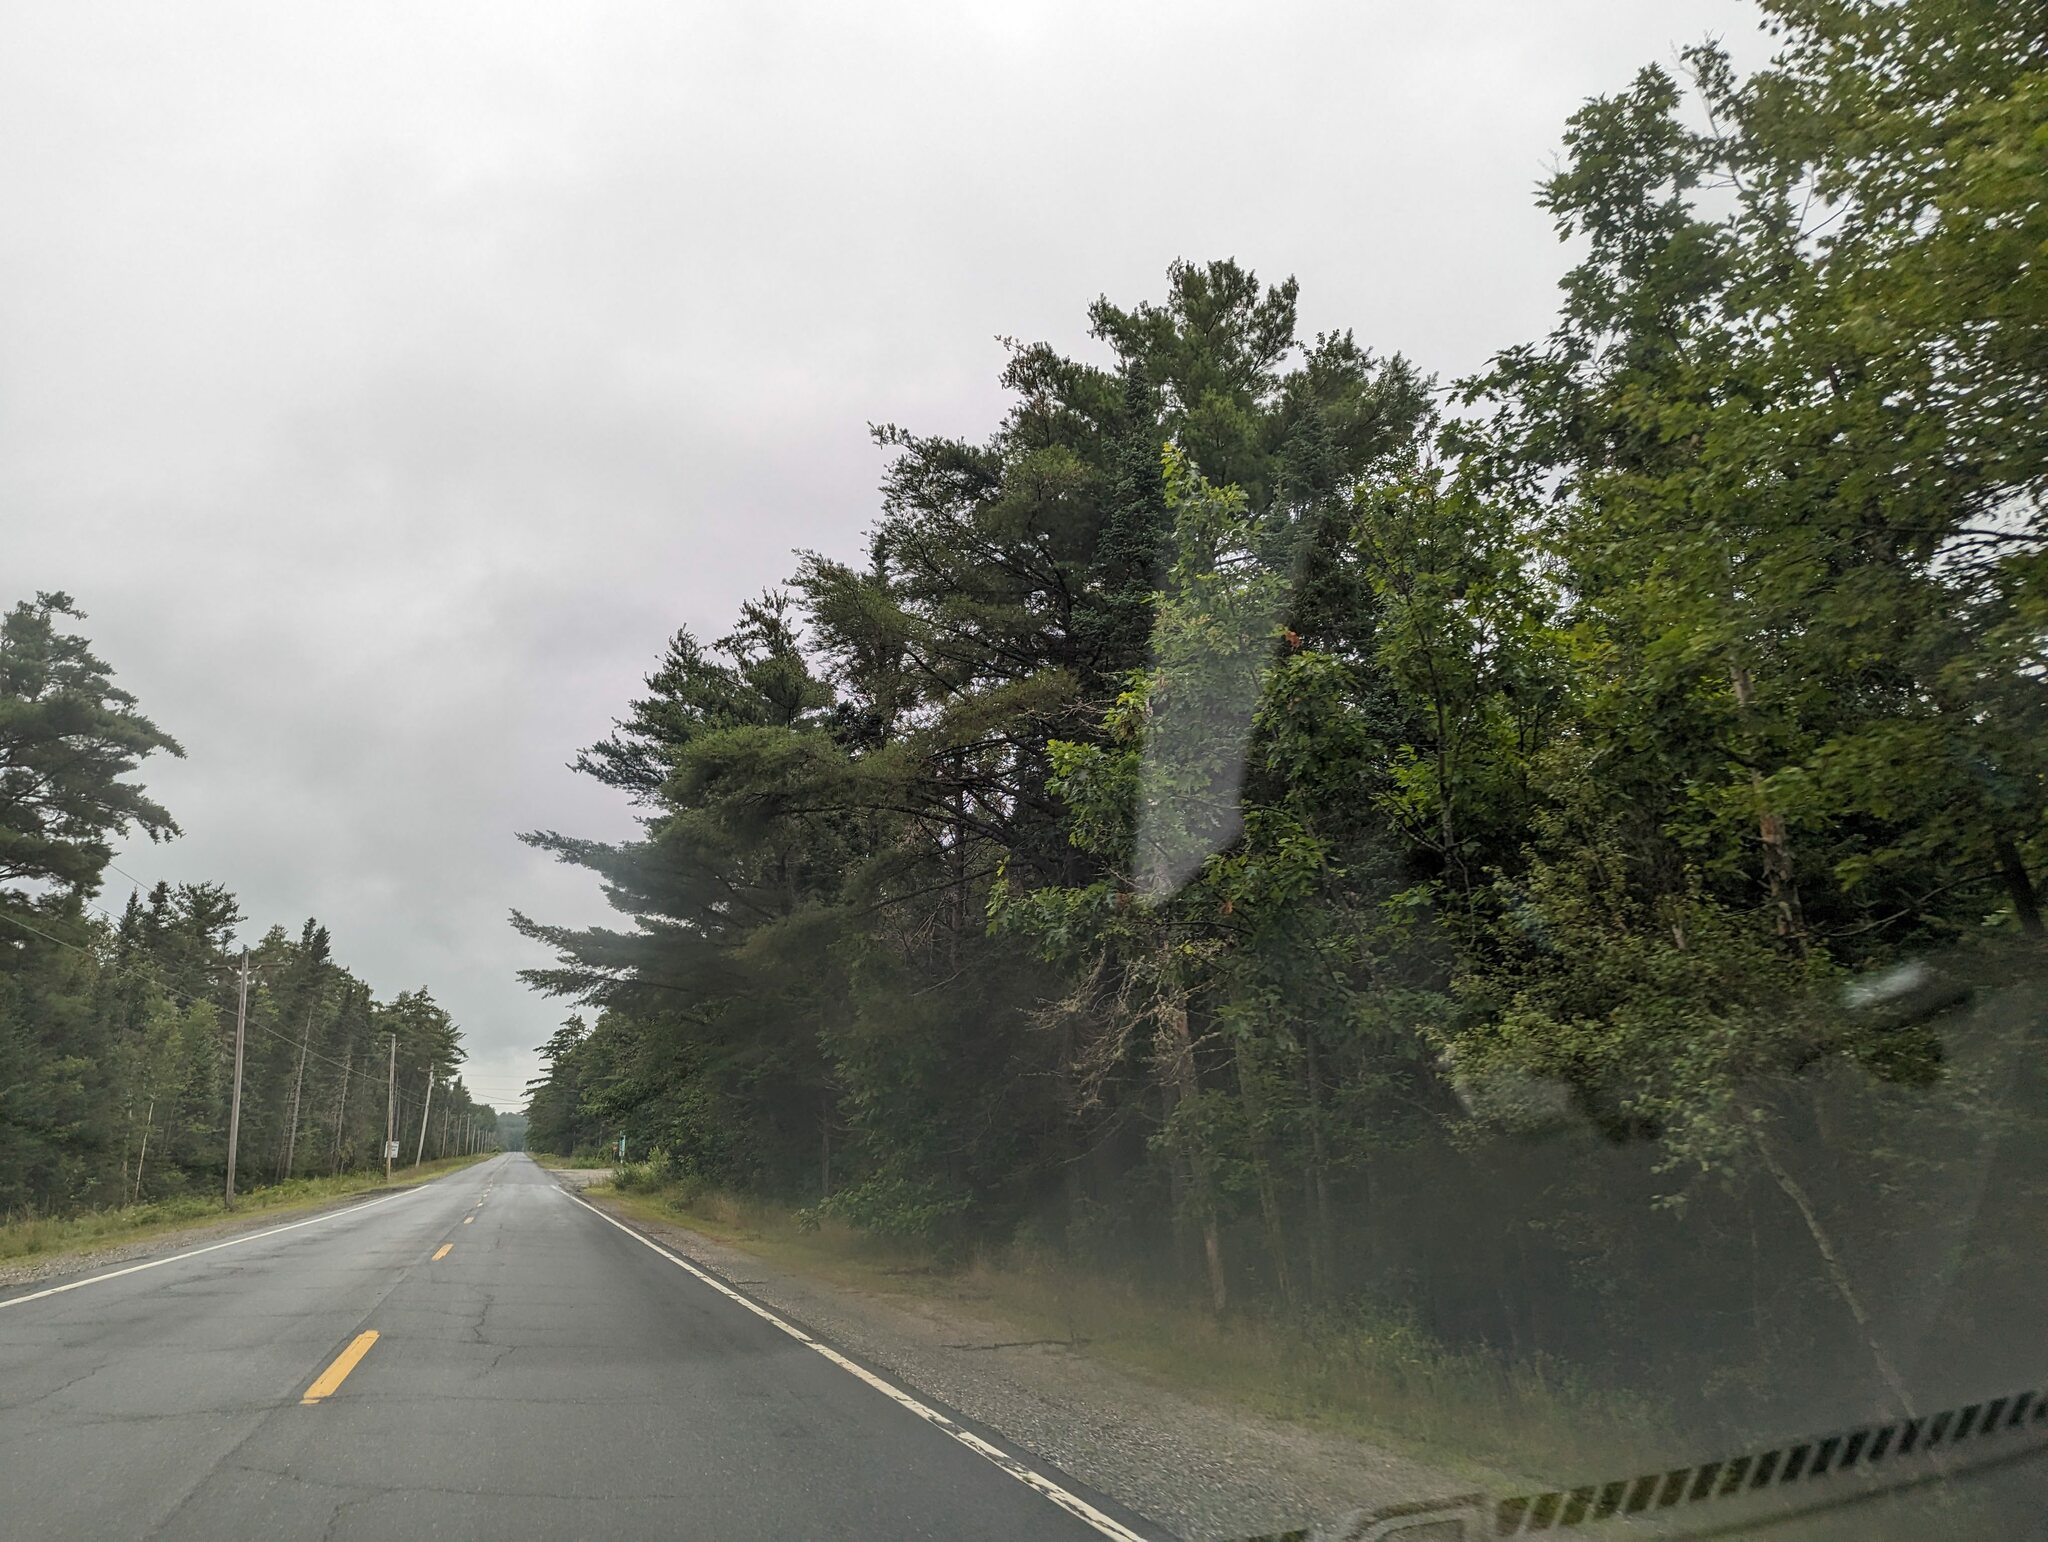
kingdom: Plantae
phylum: Tracheophyta
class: Pinopsida
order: Pinales
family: Pinaceae
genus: Pinus
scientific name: Pinus strobus
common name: Weymouth pine
